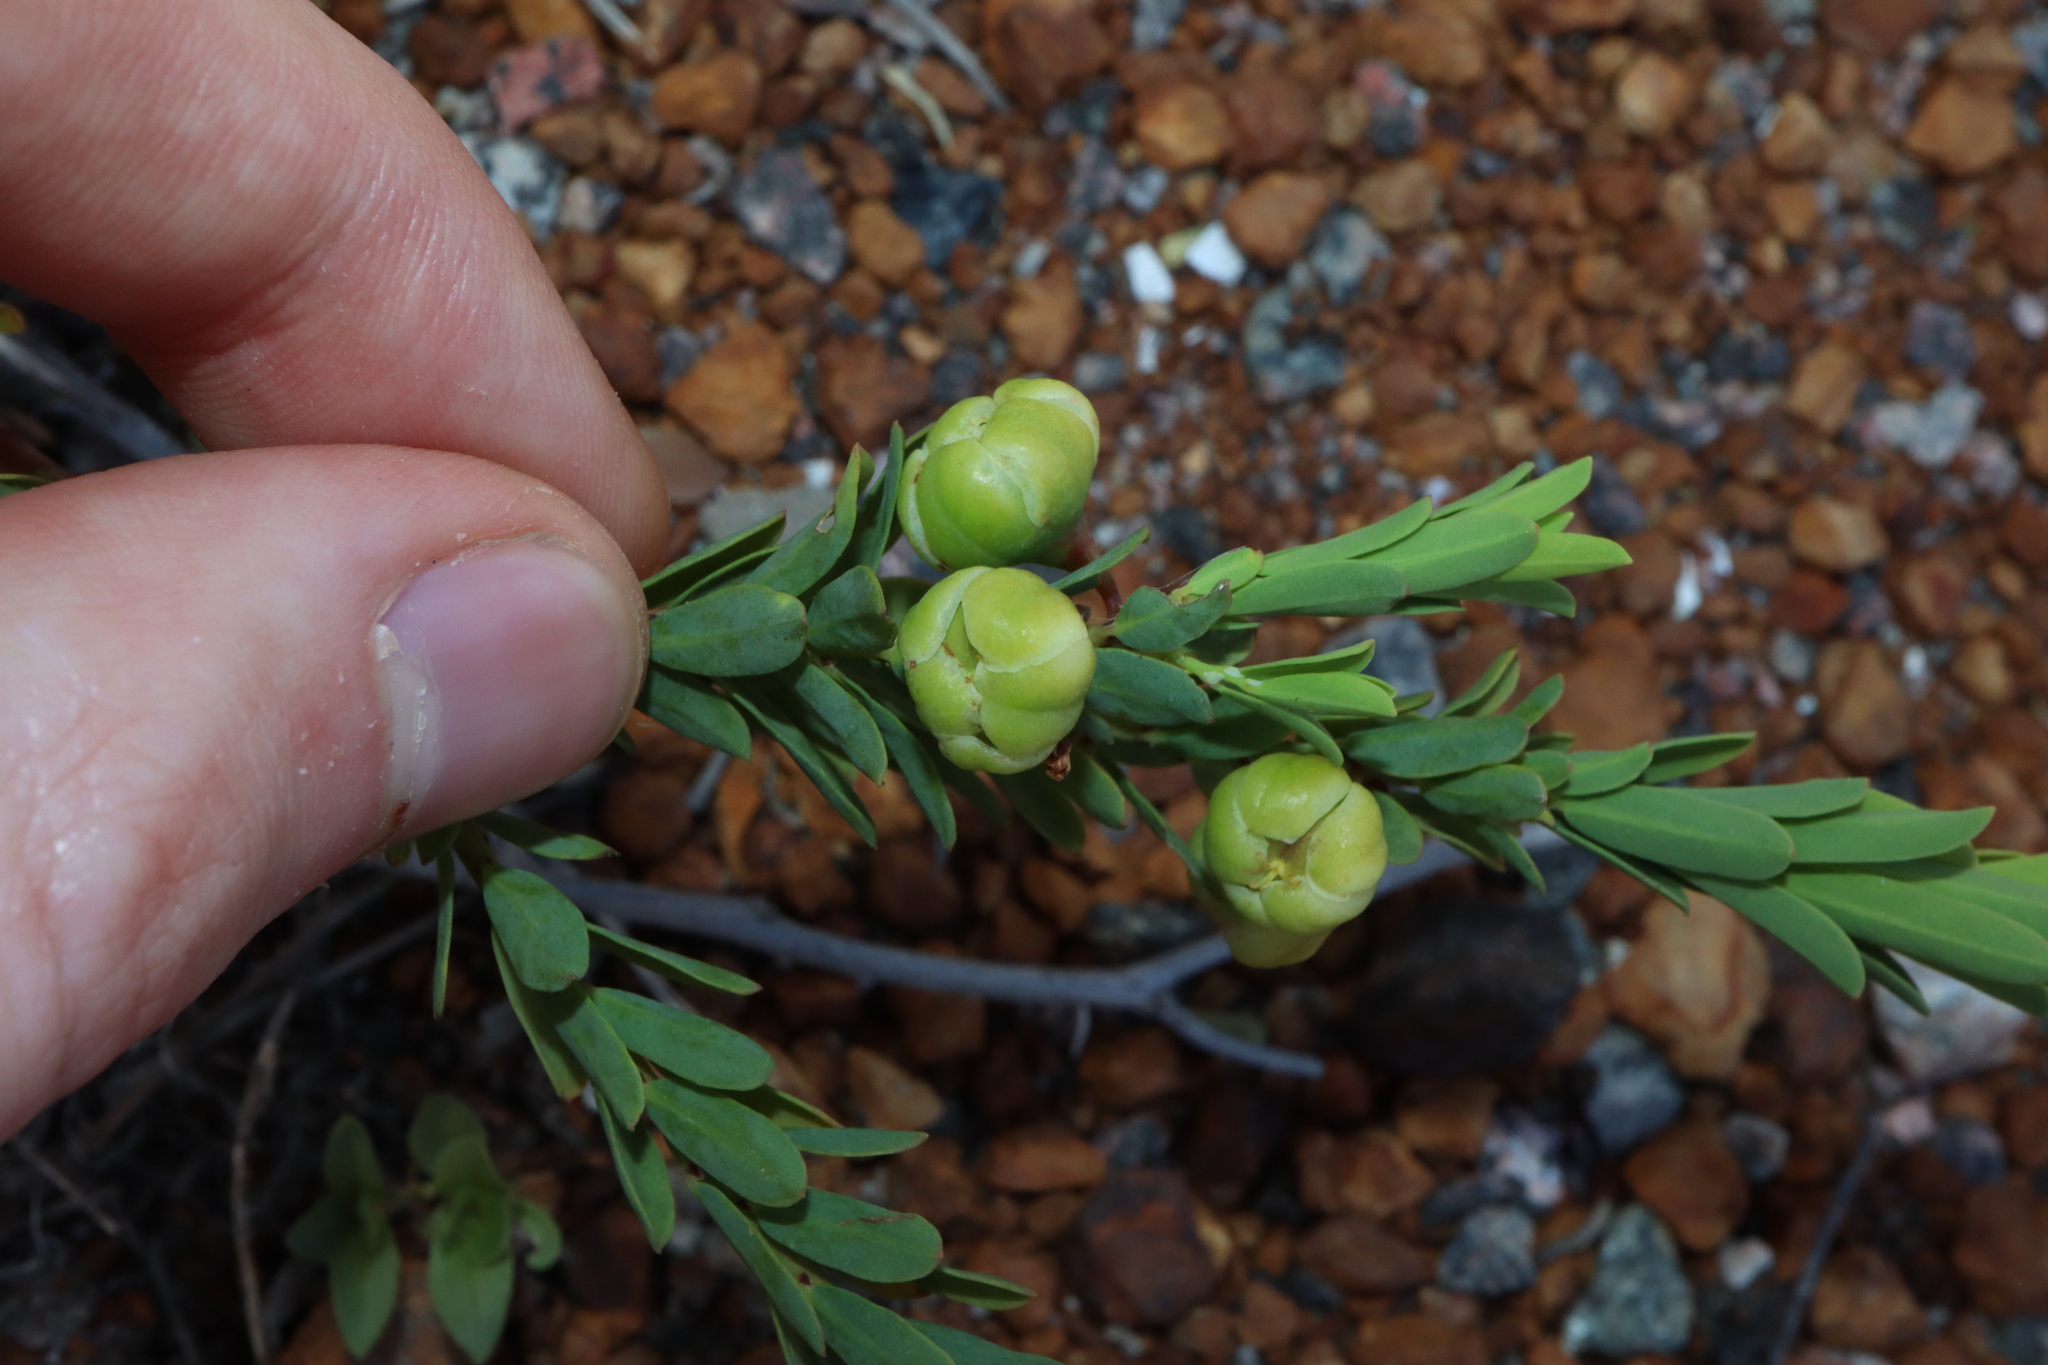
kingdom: Plantae
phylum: Tracheophyta
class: Magnoliopsida
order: Malpighiales
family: Phyllanthaceae
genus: Phyllanthus
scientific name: Phyllanthus calycinus
